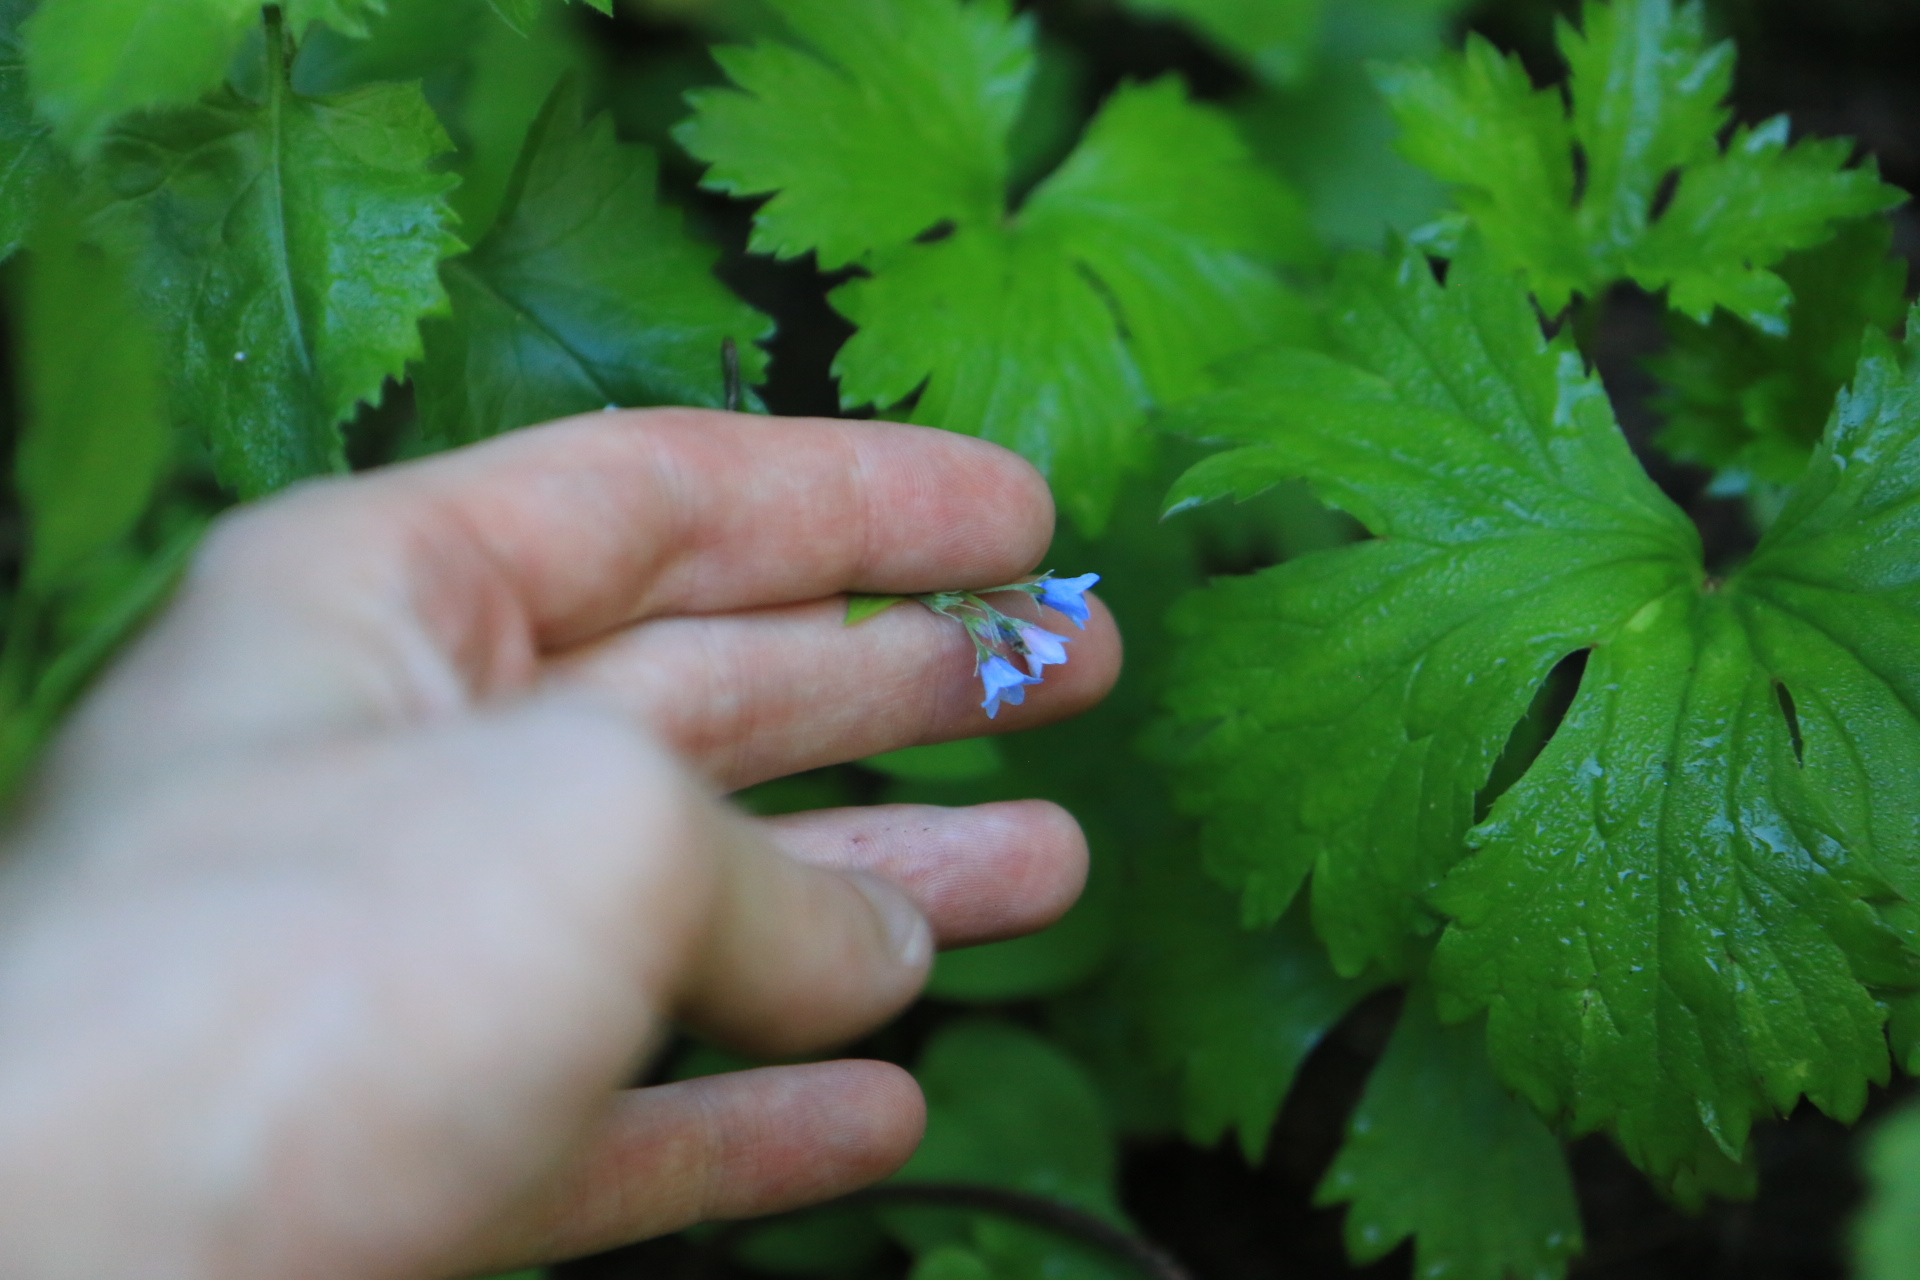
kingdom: Plantae
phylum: Tracheophyta
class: Magnoliopsida
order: Boraginales
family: Boraginaceae
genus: Mertensia
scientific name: Mertensia bella
